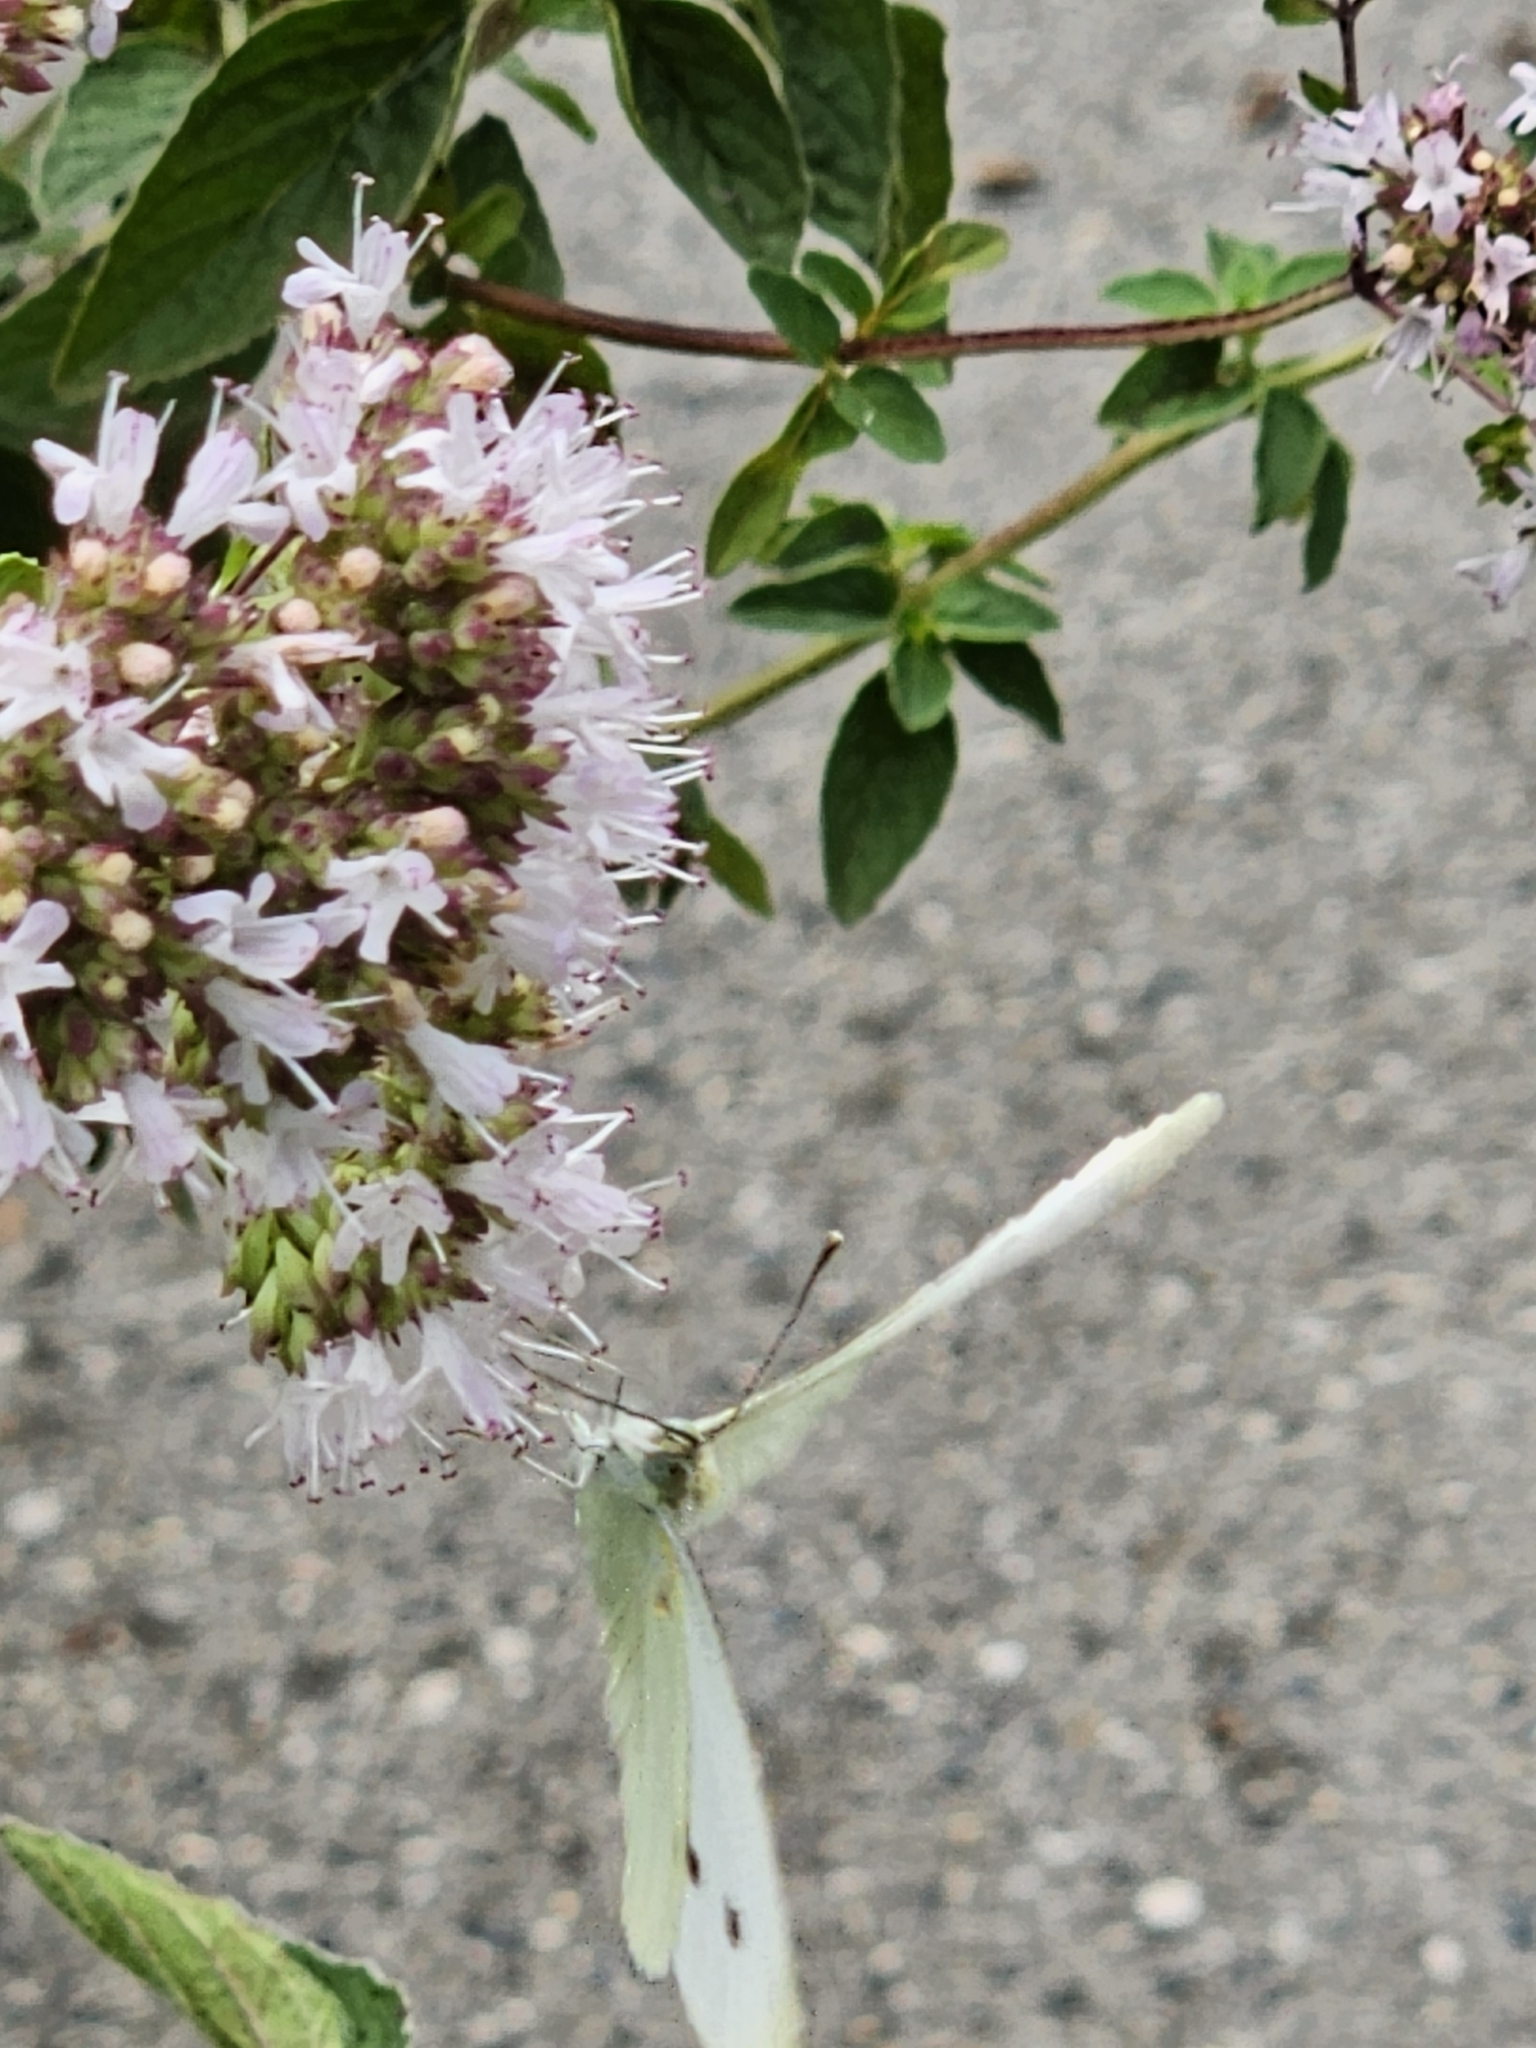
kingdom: Animalia
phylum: Arthropoda
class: Insecta
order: Lepidoptera
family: Pieridae
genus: Pieris
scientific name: Pieris rapae
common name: Small white
